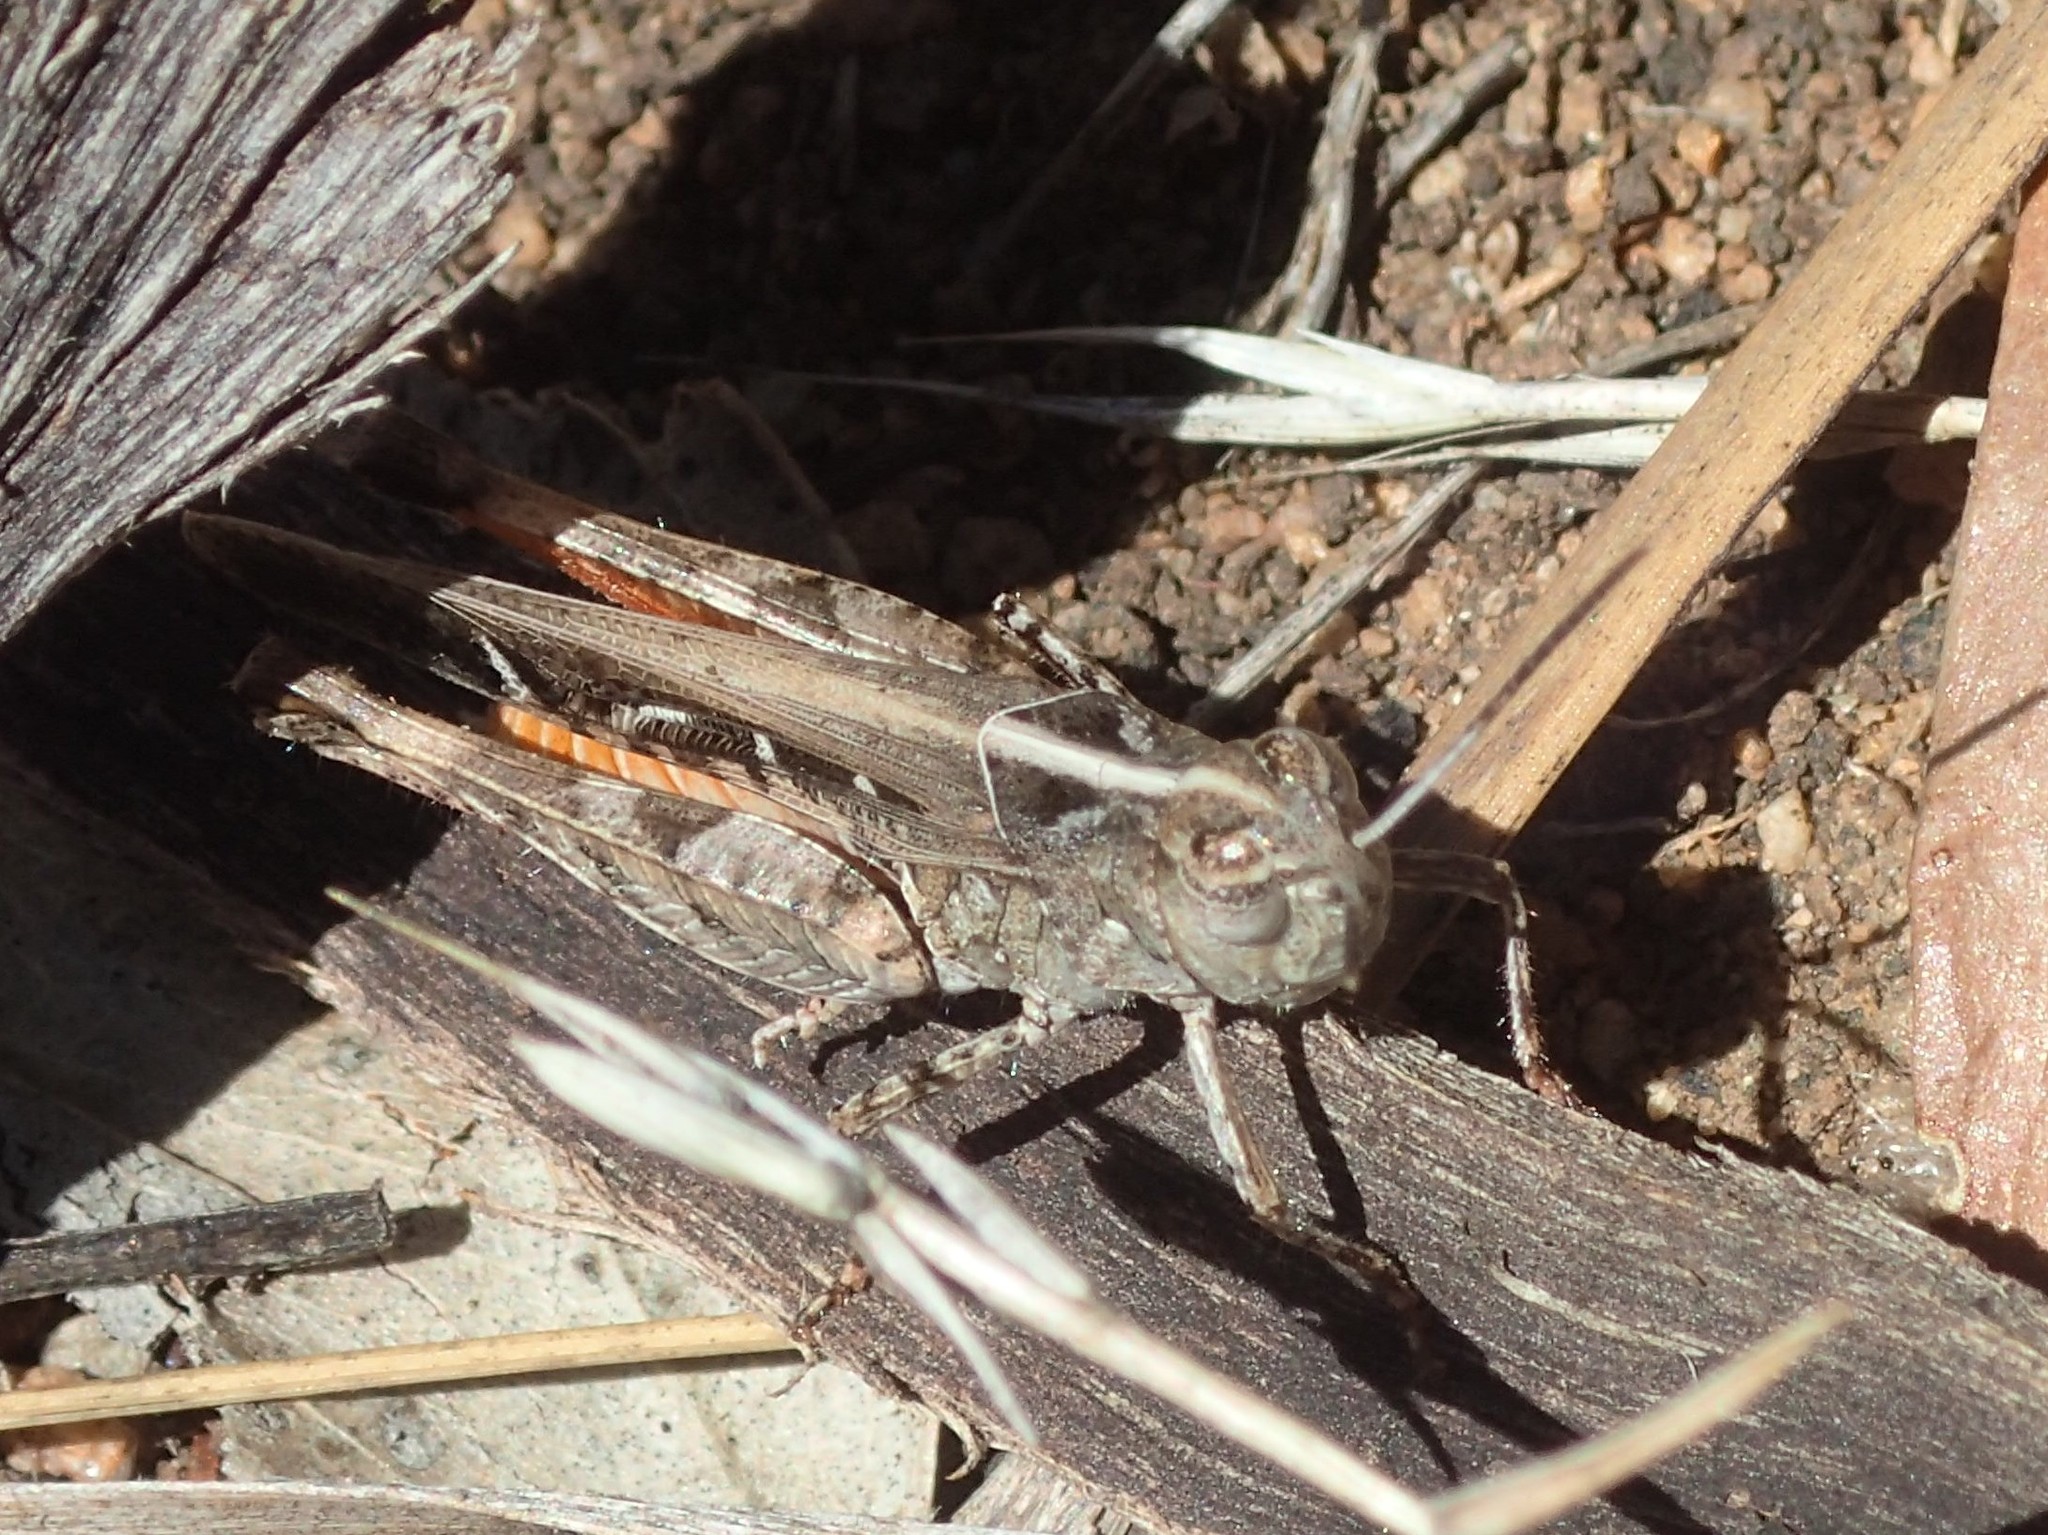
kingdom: Animalia
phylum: Arthropoda
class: Insecta
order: Orthoptera
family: Acrididae
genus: Heteropternis
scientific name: Heteropternis obscurella
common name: Long-legged bandwing
